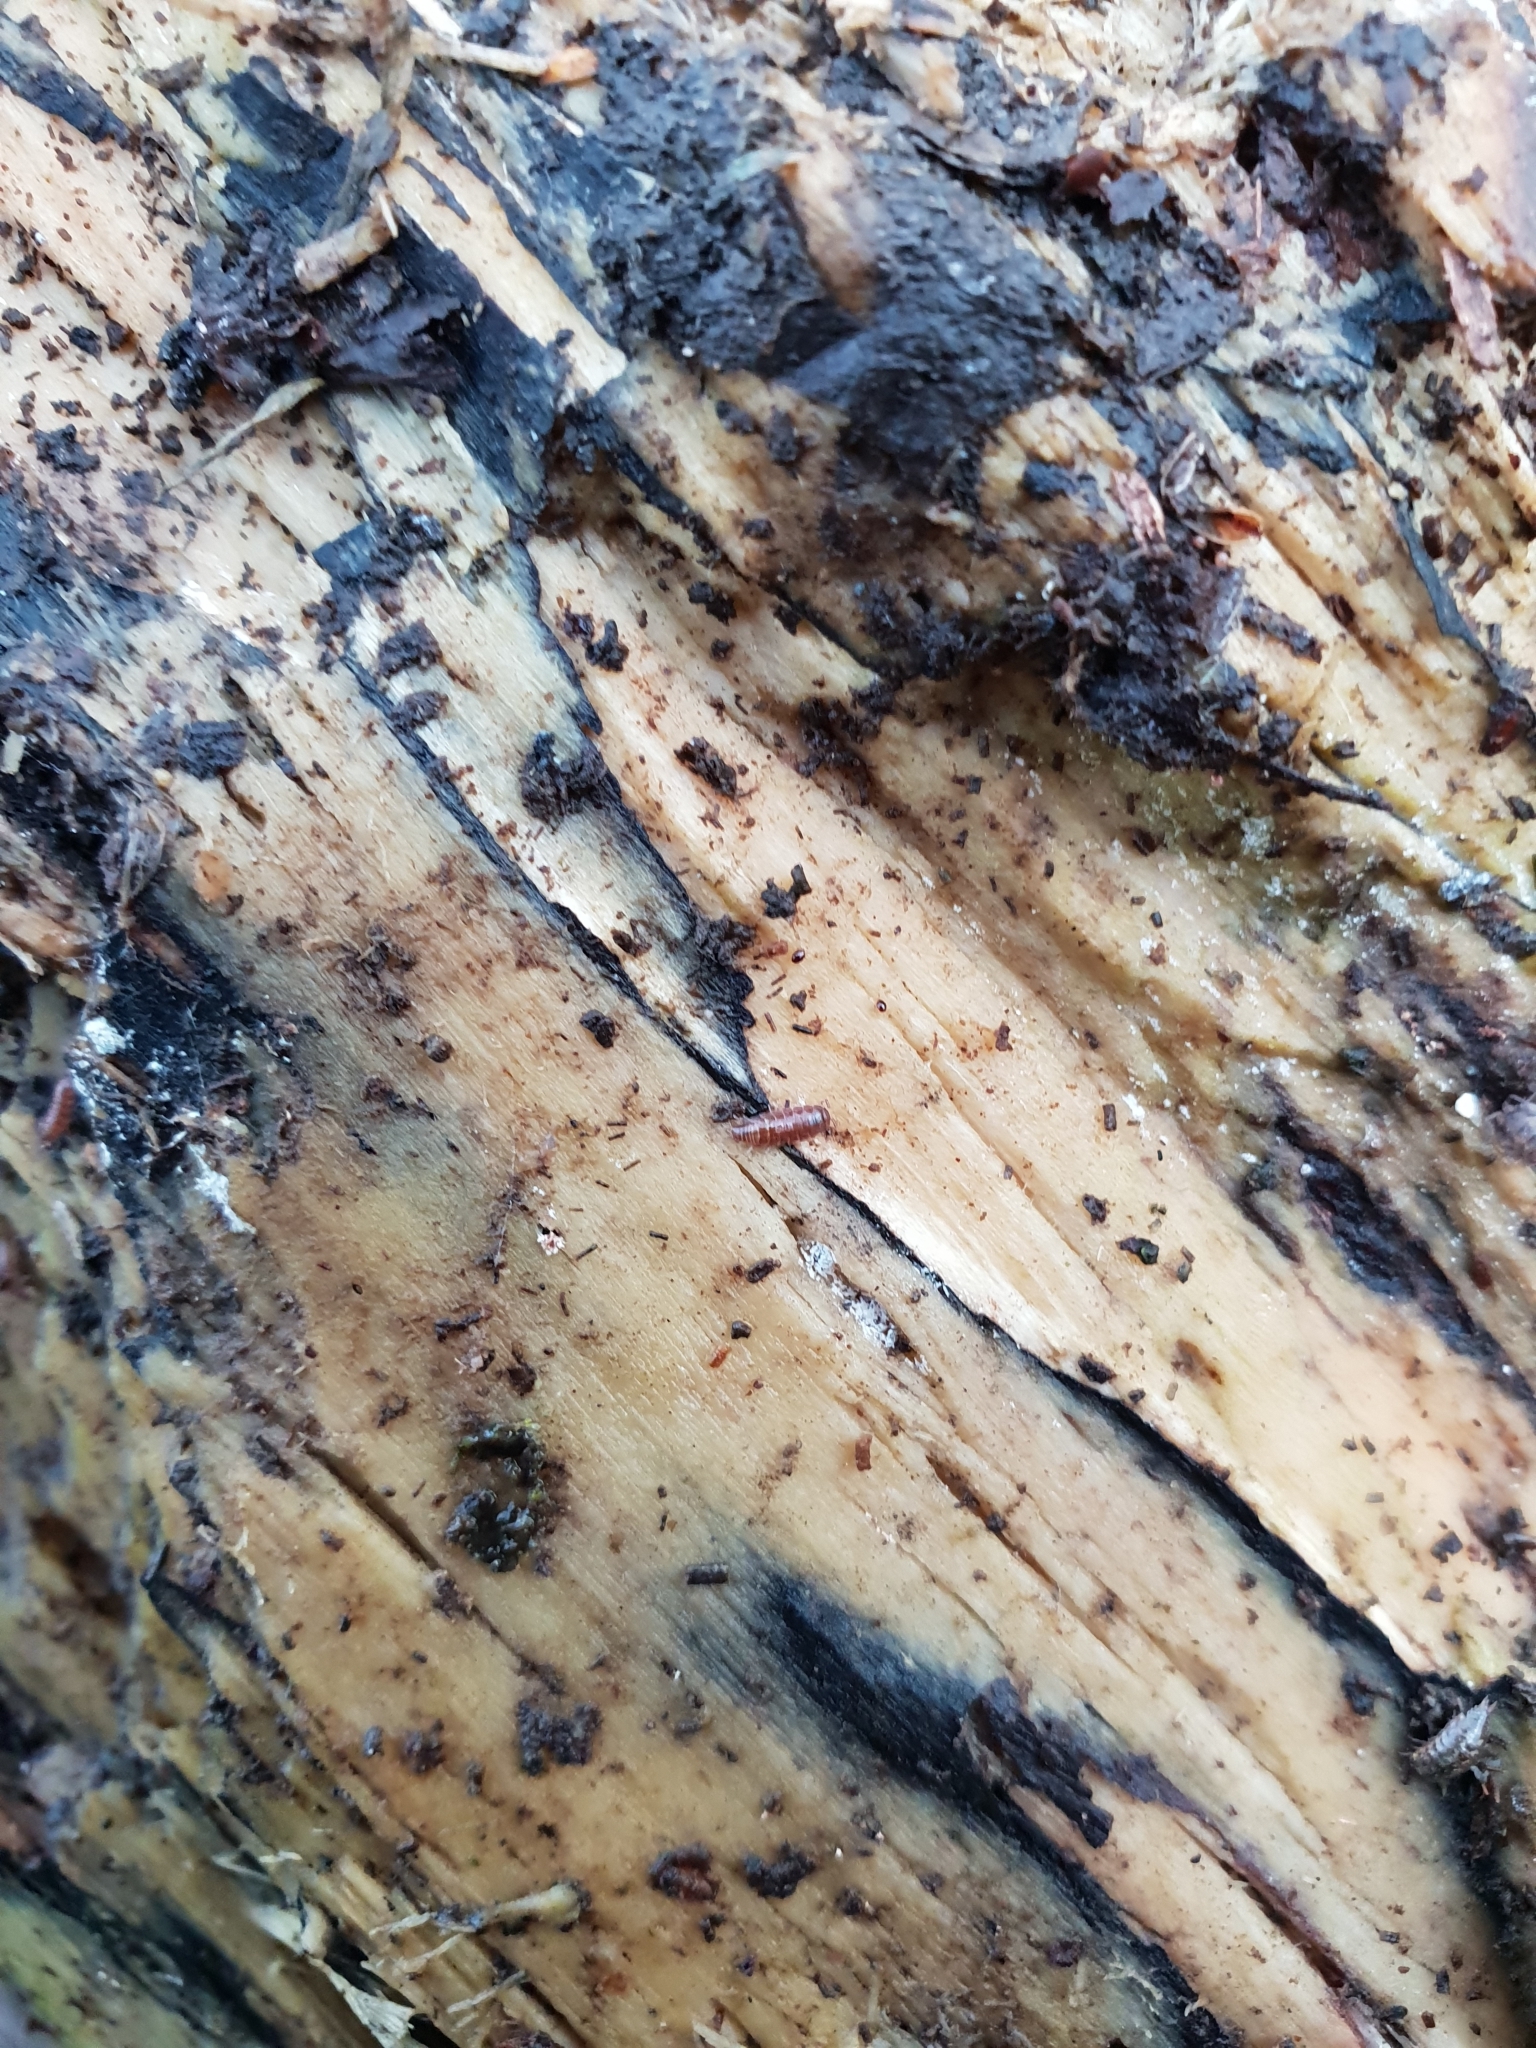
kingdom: Animalia
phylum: Arthropoda
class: Malacostraca
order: Isopoda
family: Trichoniscidae
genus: Trichoniscus
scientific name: Trichoniscus
